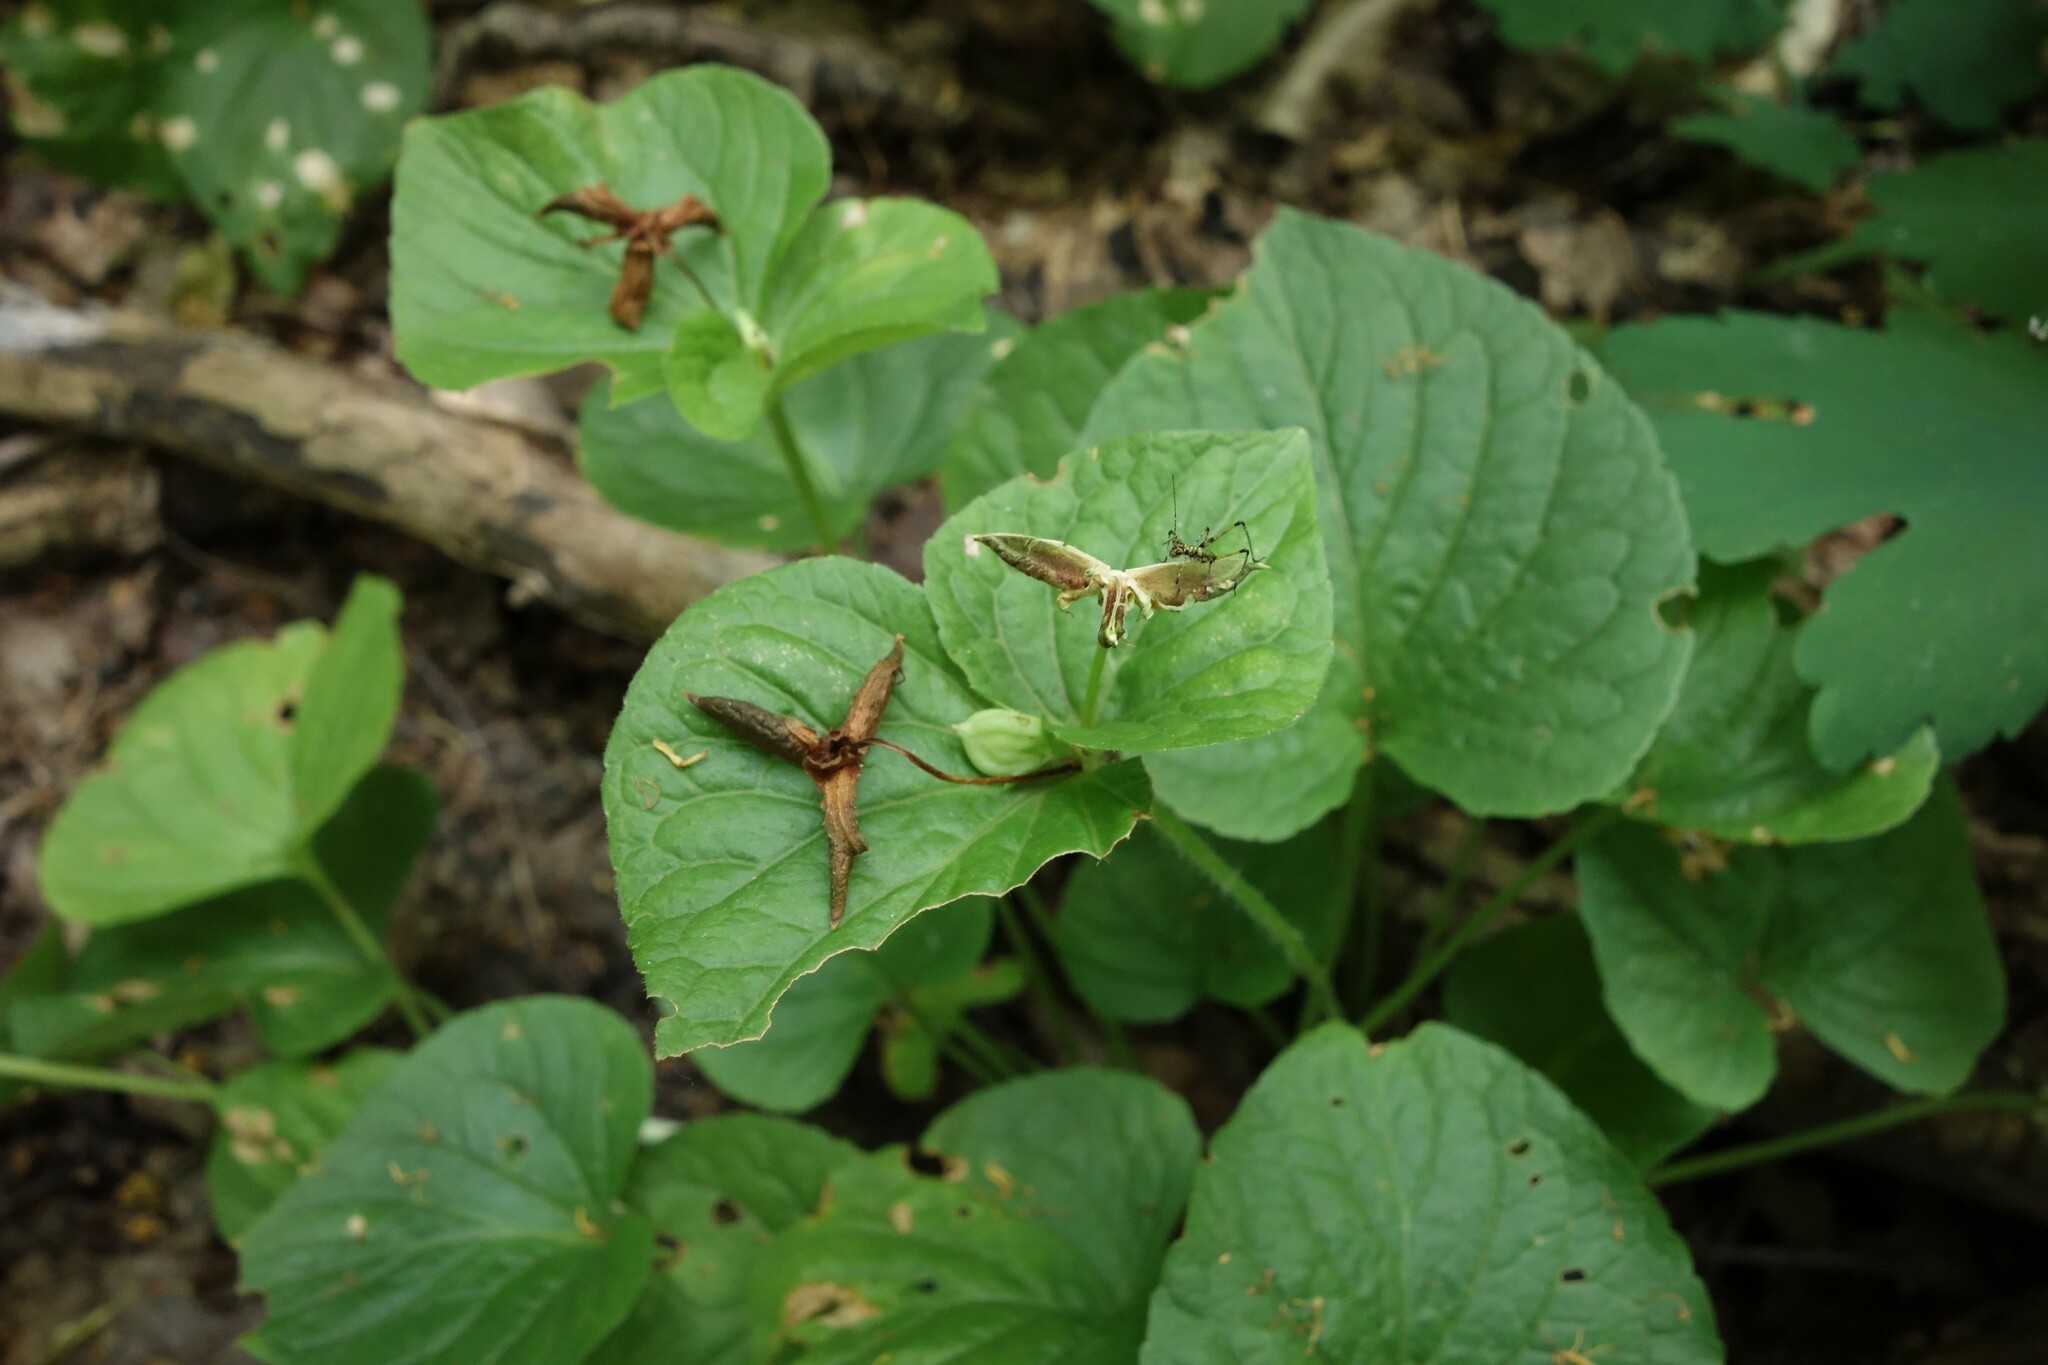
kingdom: Plantae
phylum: Tracheophyta
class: Magnoliopsida
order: Malpighiales
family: Violaceae
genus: Viola
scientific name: Viola mirabilis
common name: Wonder violet
